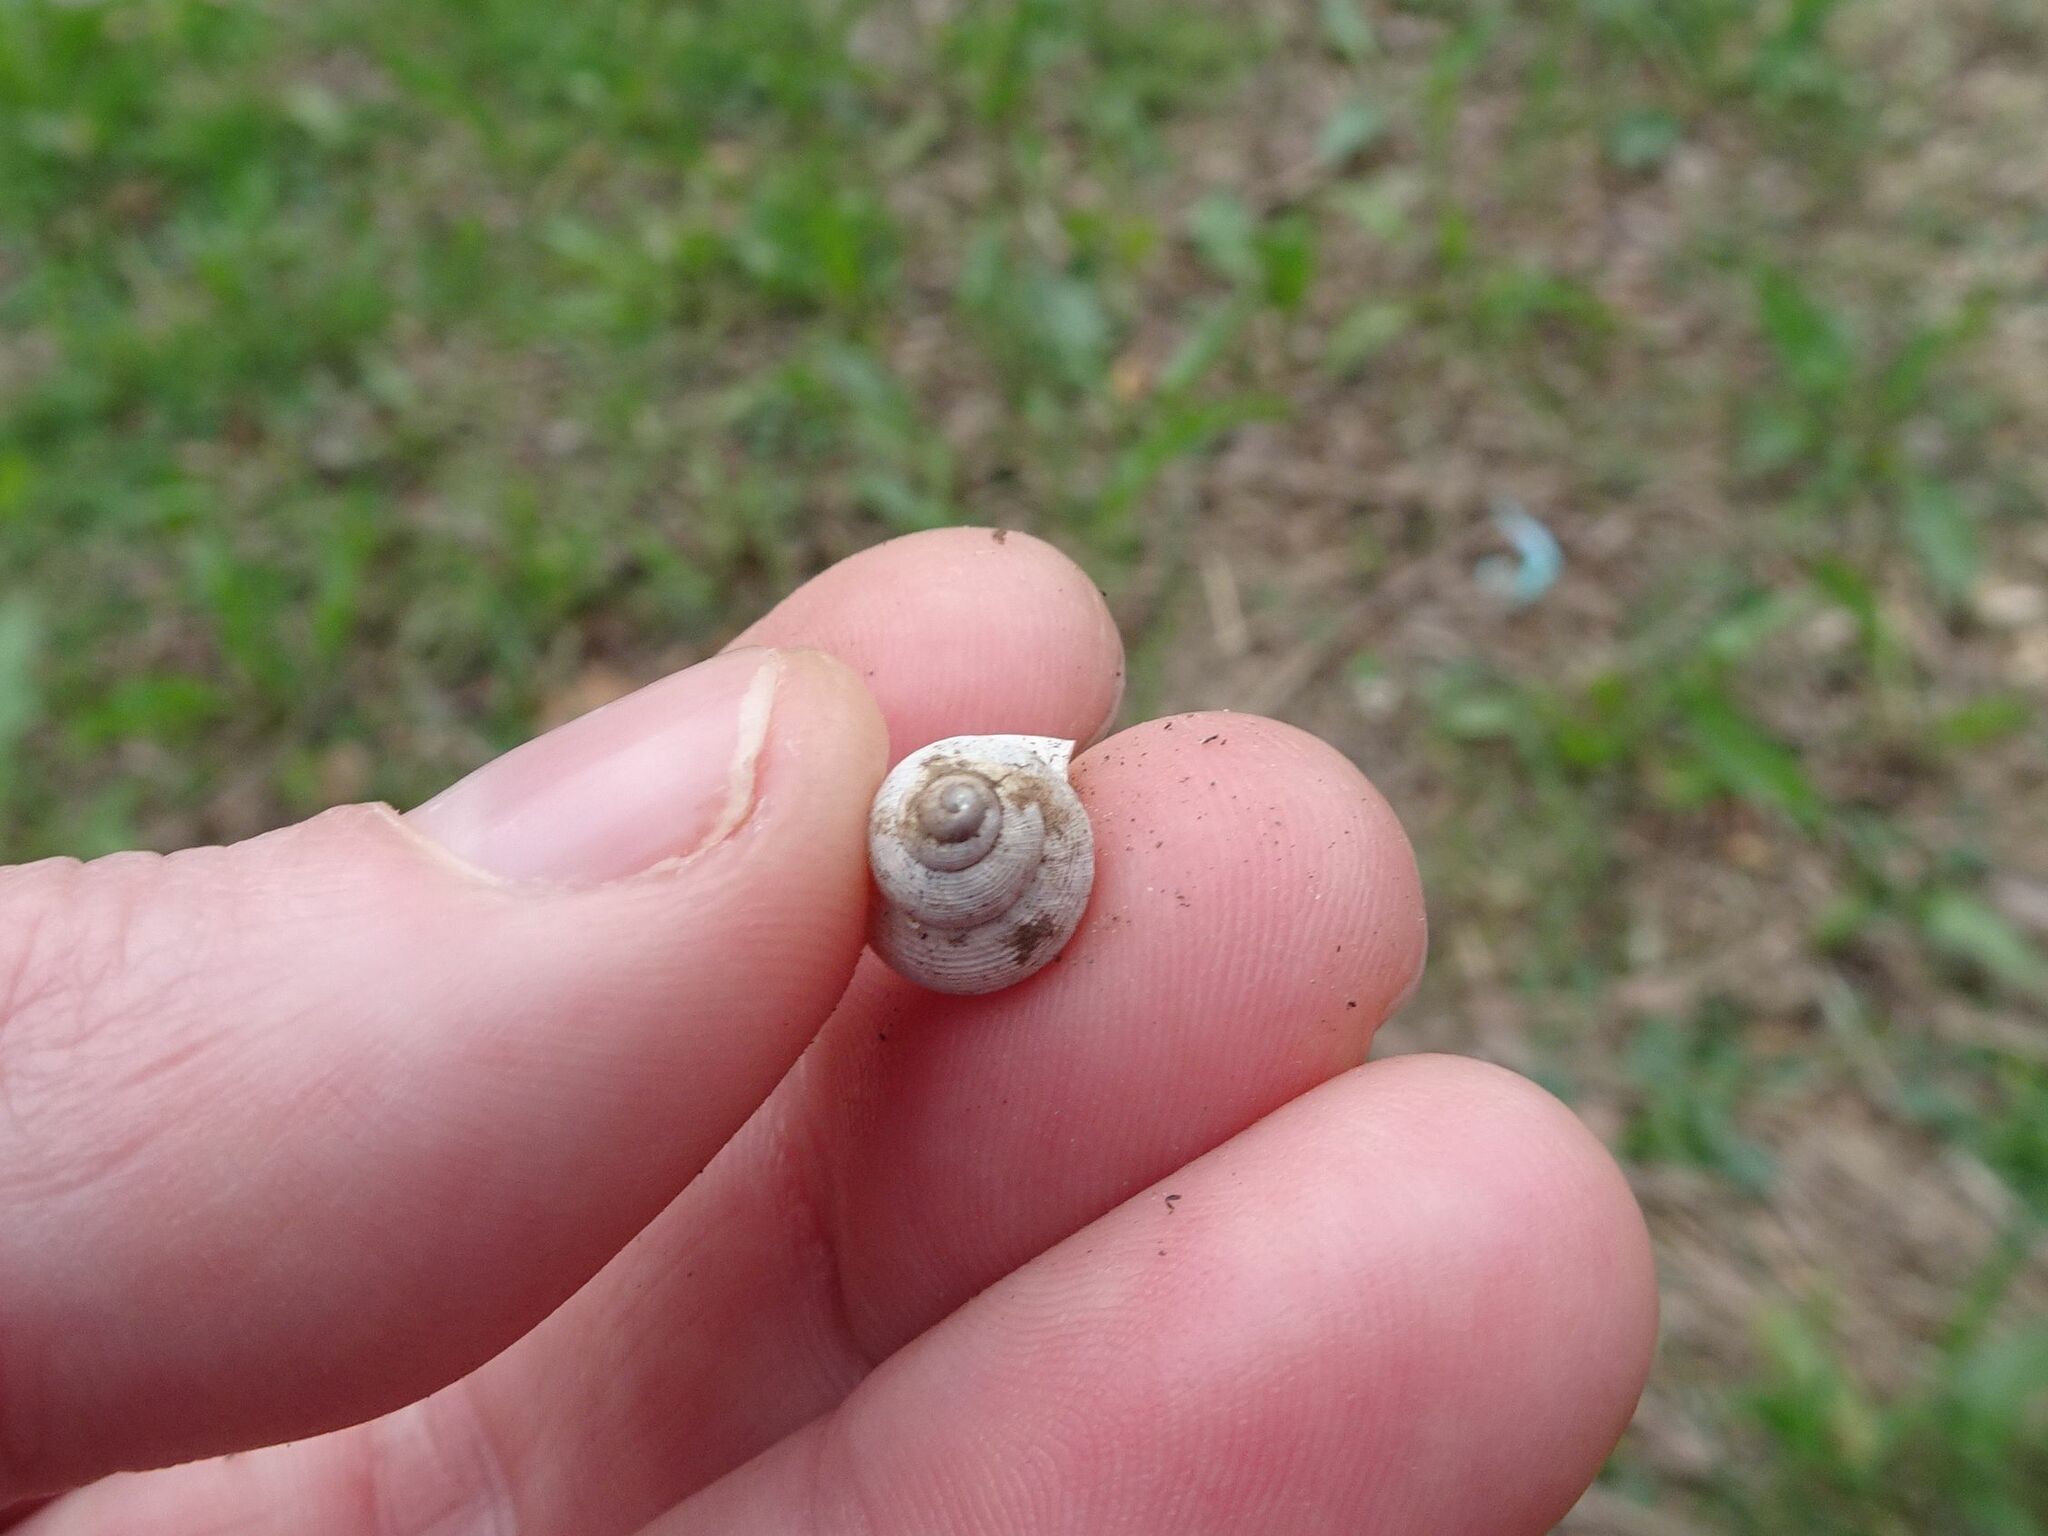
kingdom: Animalia
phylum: Mollusca
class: Gastropoda
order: Littorinimorpha
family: Pomatiidae
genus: Pomatias
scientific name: Pomatias elegans
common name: Red-mouthed snail
